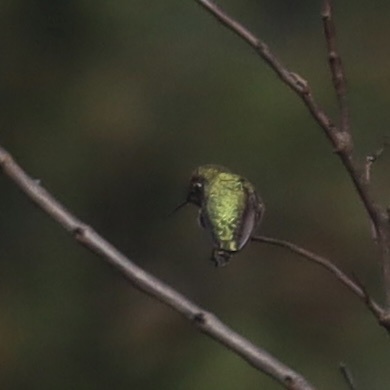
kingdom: Animalia
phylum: Chordata
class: Aves
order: Apodiformes
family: Trochilidae
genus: Calypte
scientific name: Calypte anna
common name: Anna's hummingbird
